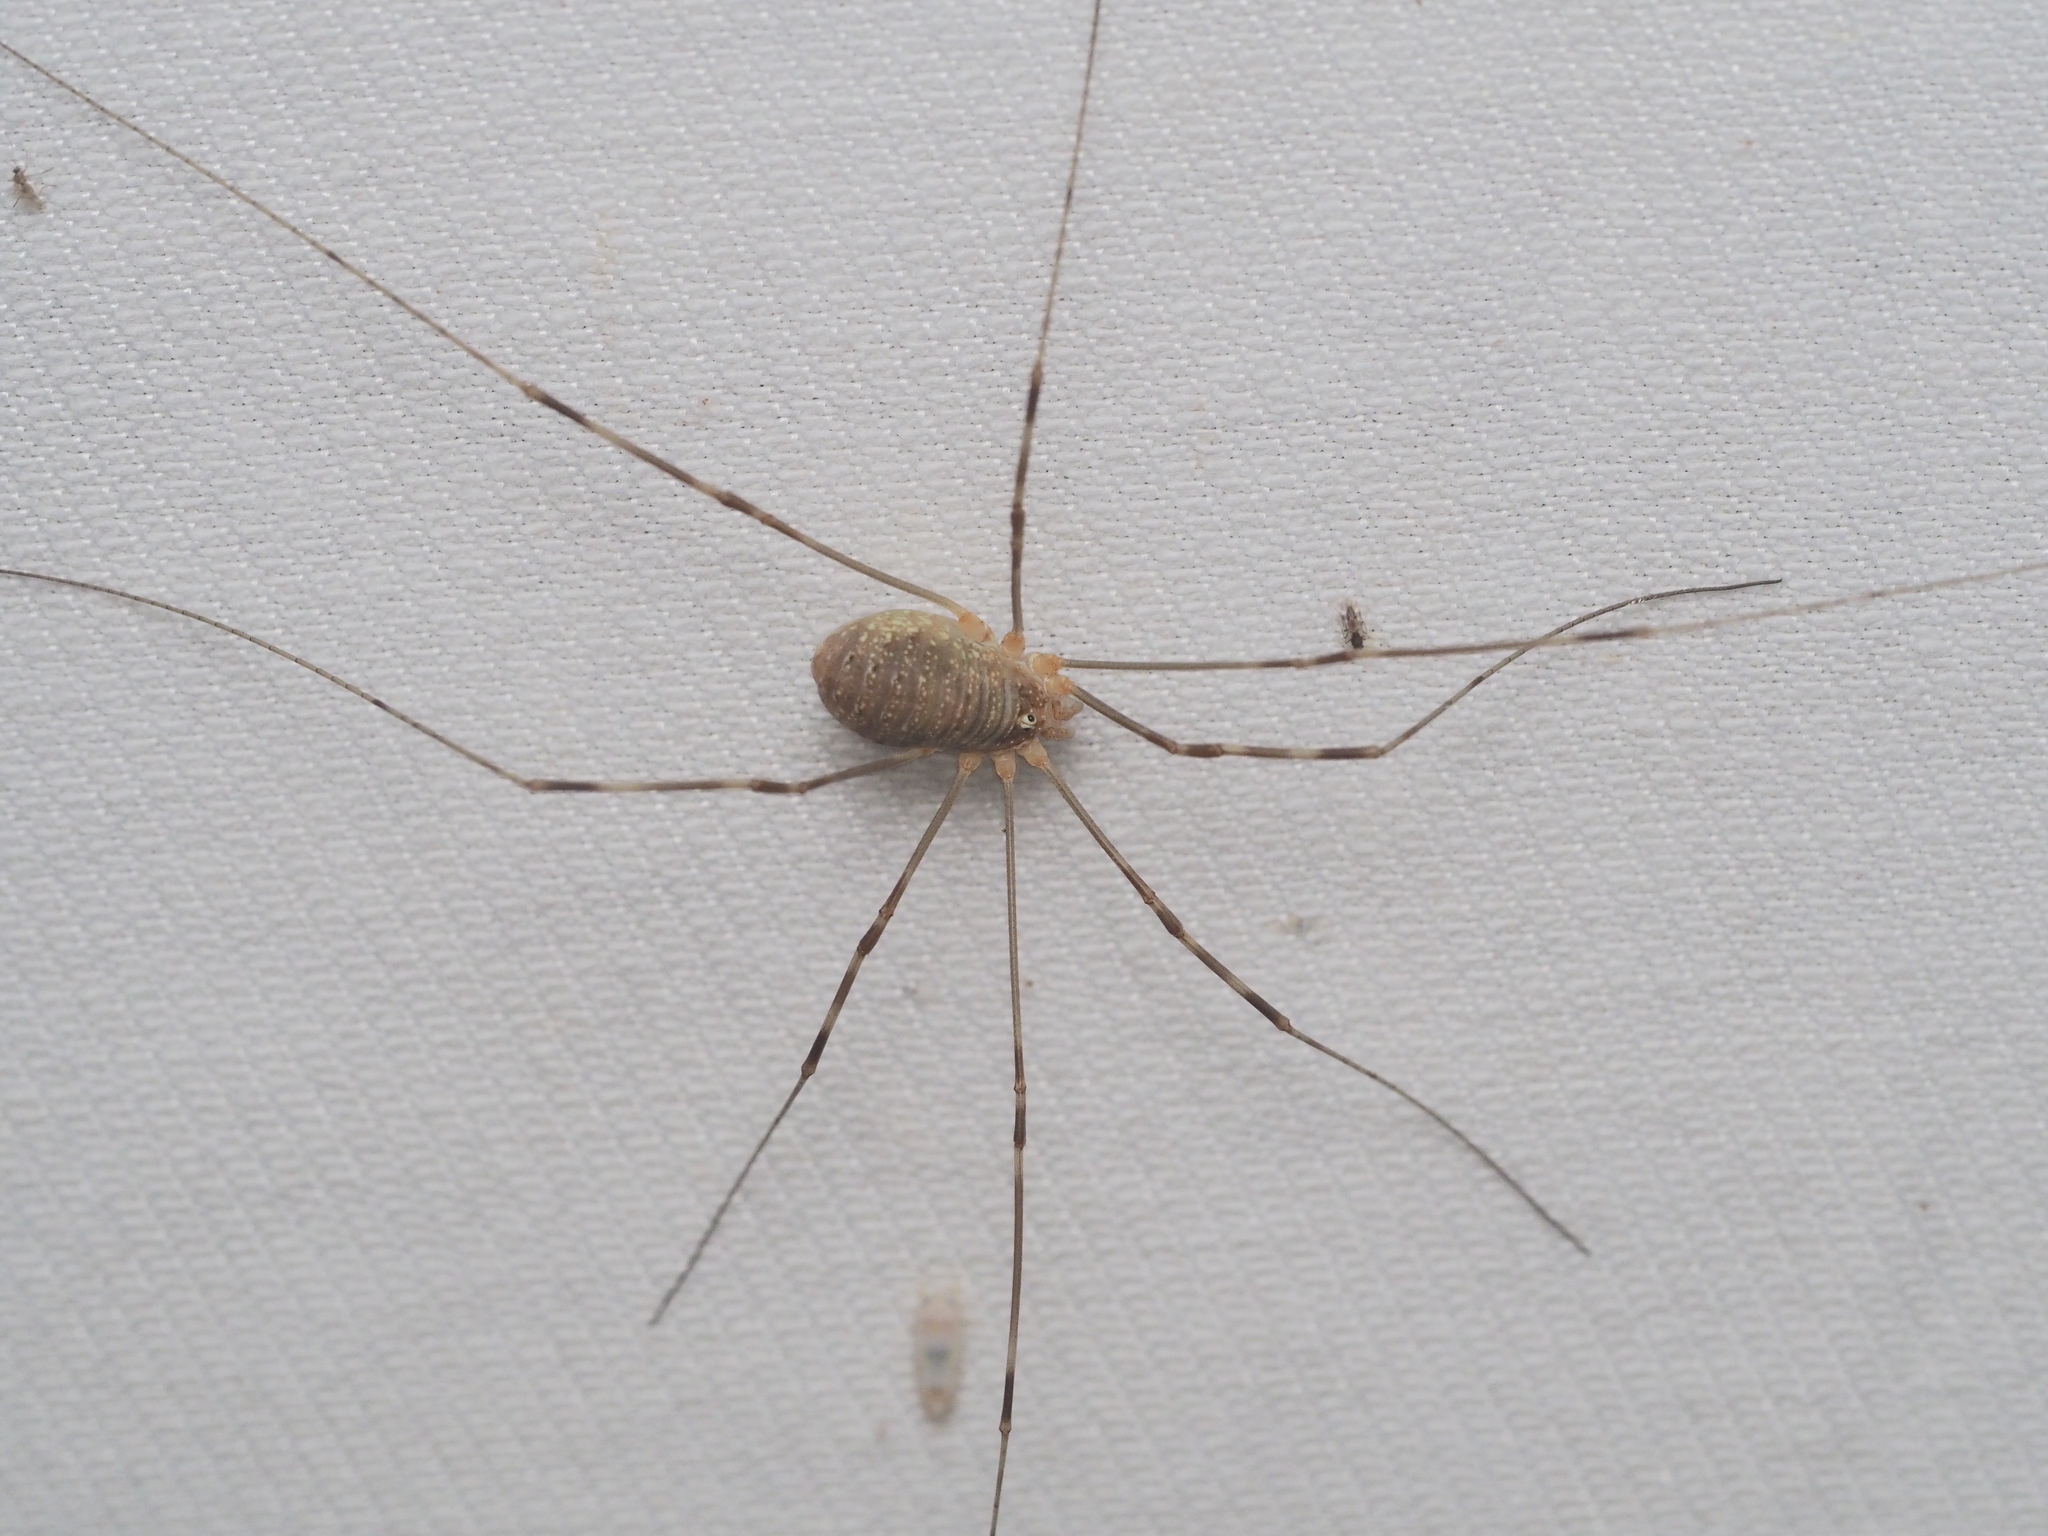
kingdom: Animalia
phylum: Arthropoda
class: Arachnida
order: Opiliones
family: Phalangiidae
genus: Opilio
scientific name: Opilio canestrinii
